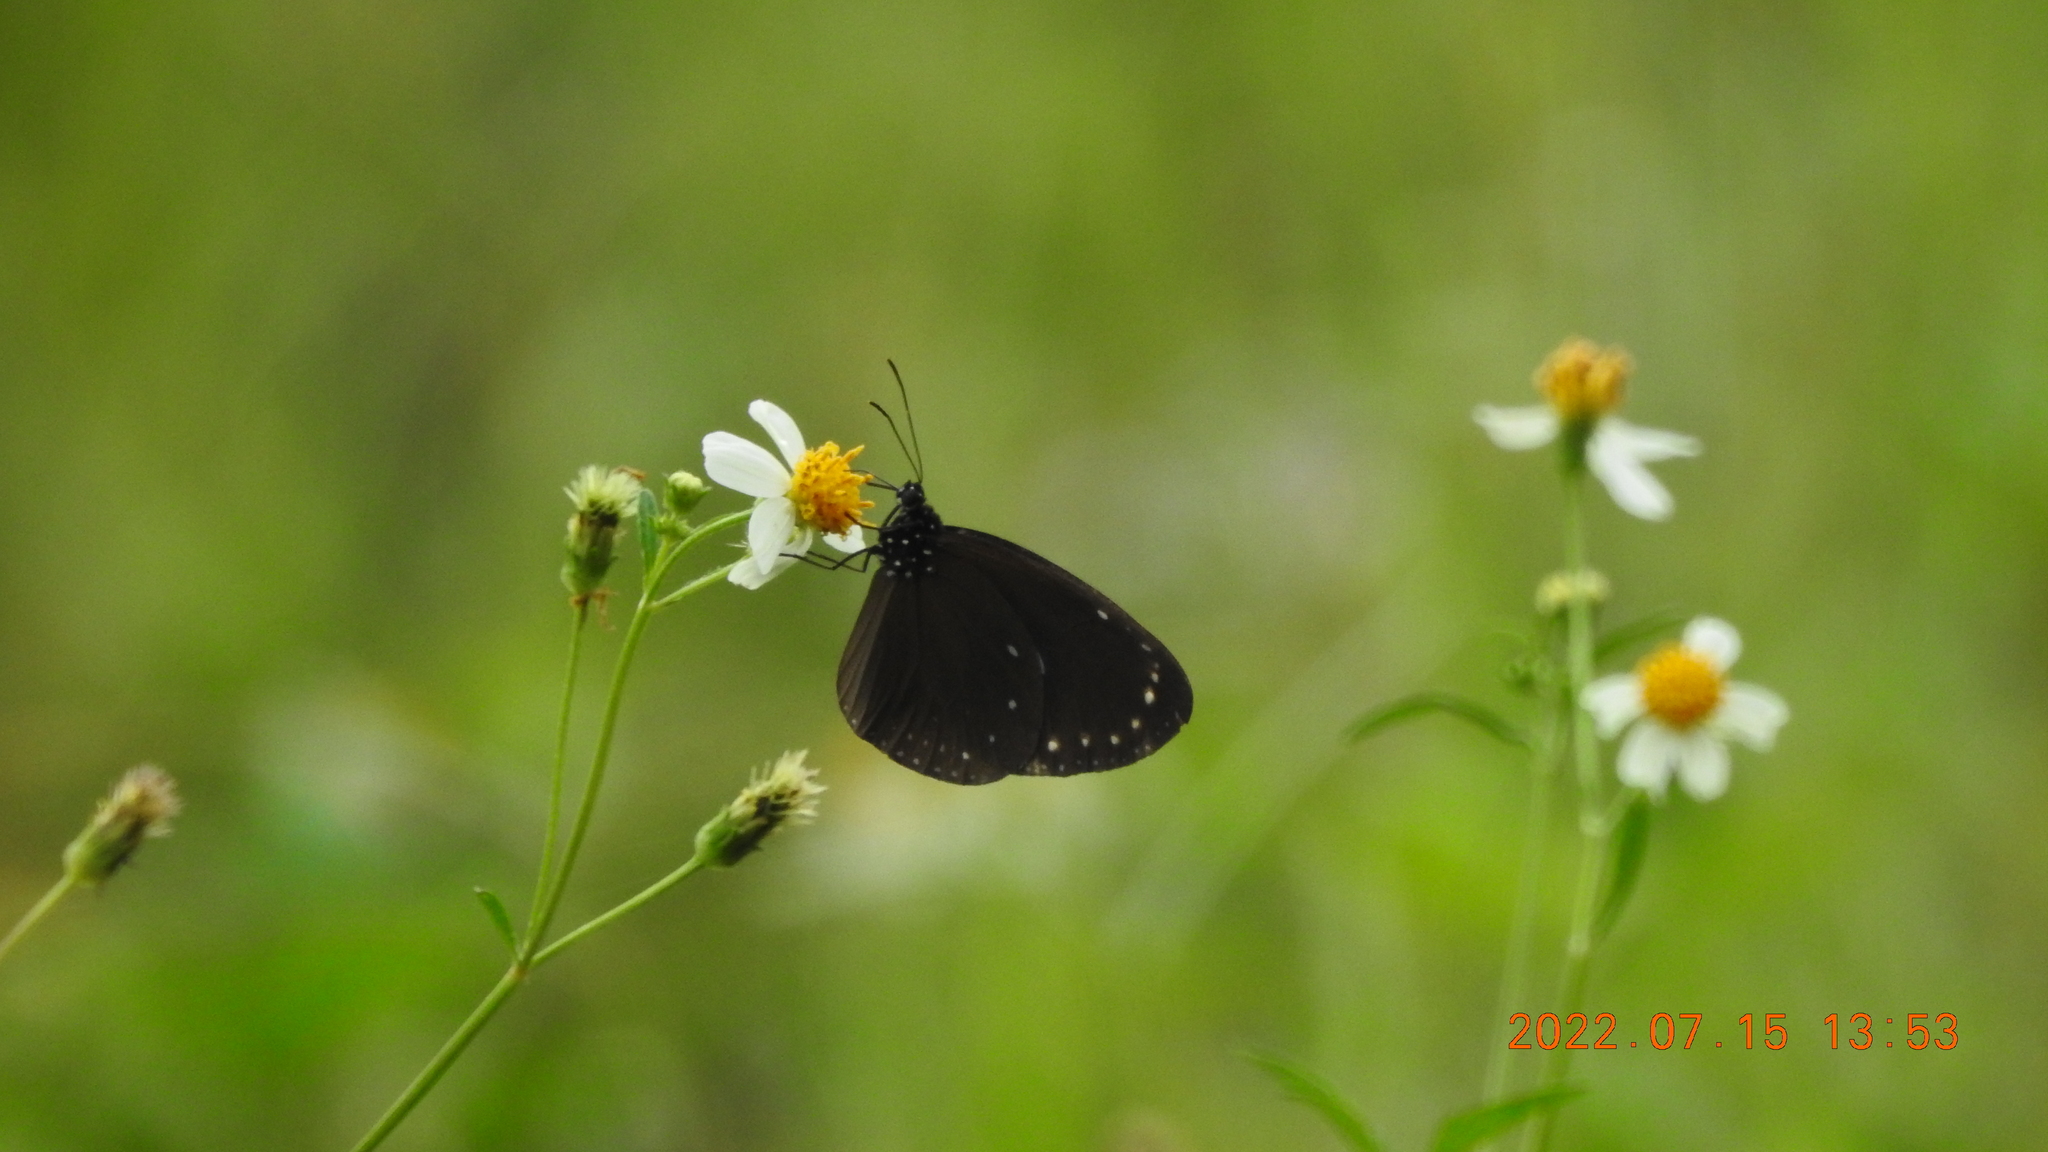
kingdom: Animalia
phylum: Arthropoda
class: Insecta
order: Lepidoptera
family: Nymphalidae
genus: Euploea
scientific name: Euploea tulliolus
